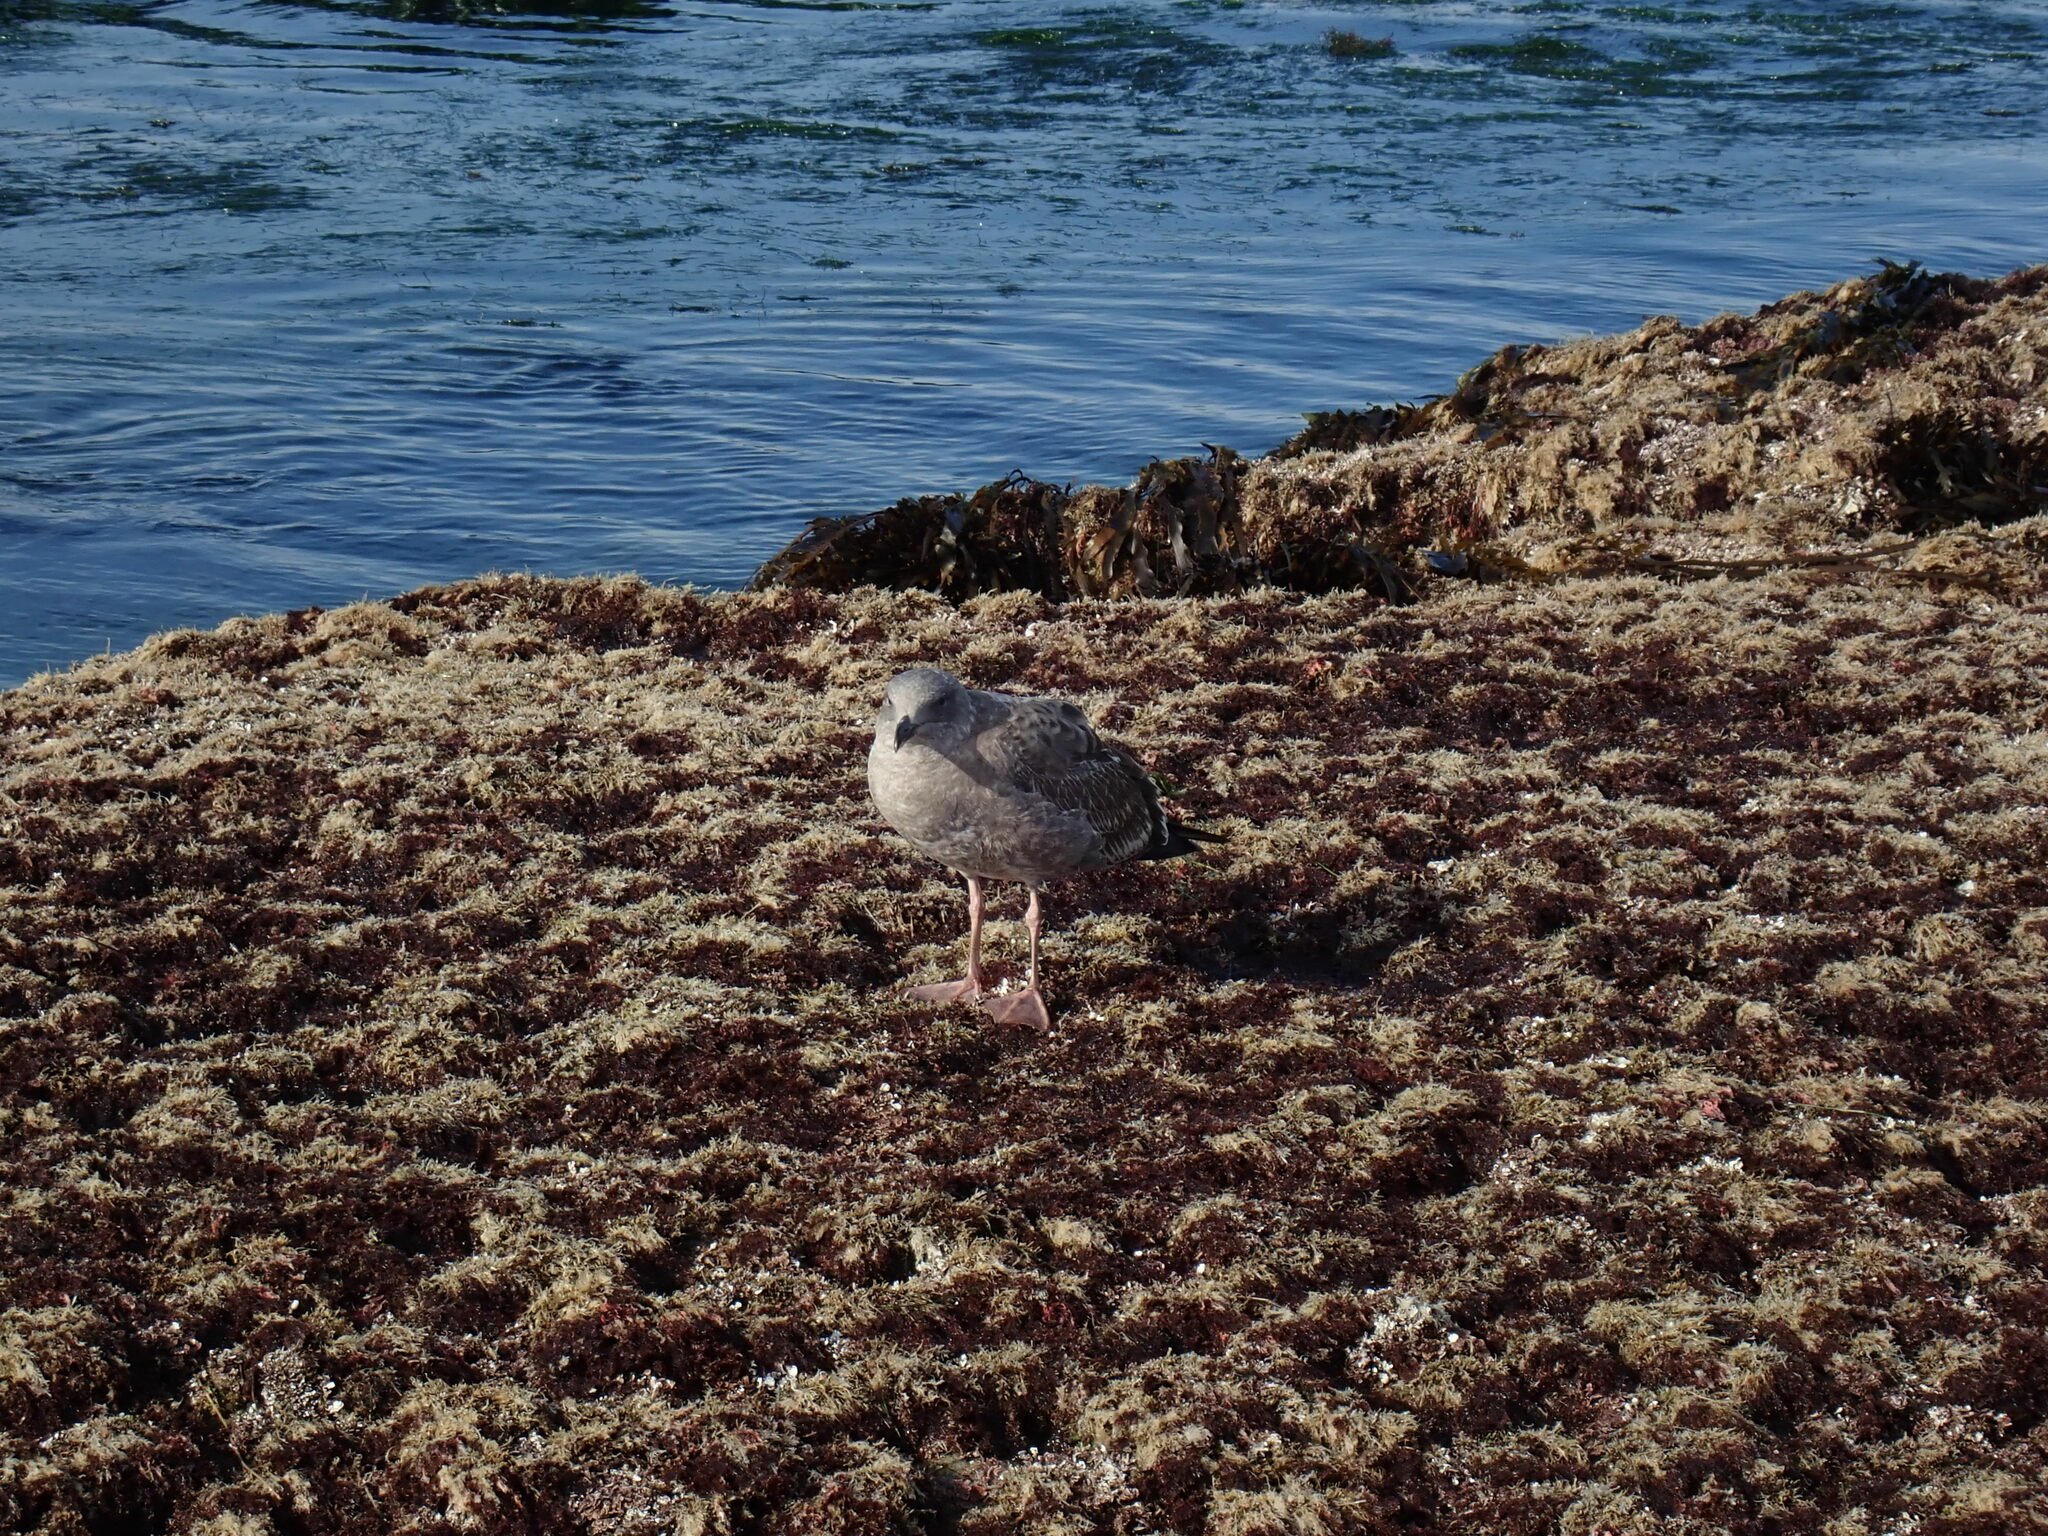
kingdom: Animalia
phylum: Chordata
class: Aves
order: Charadriiformes
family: Laridae
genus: Larus
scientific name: Larus occidentalis
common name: Western gull
